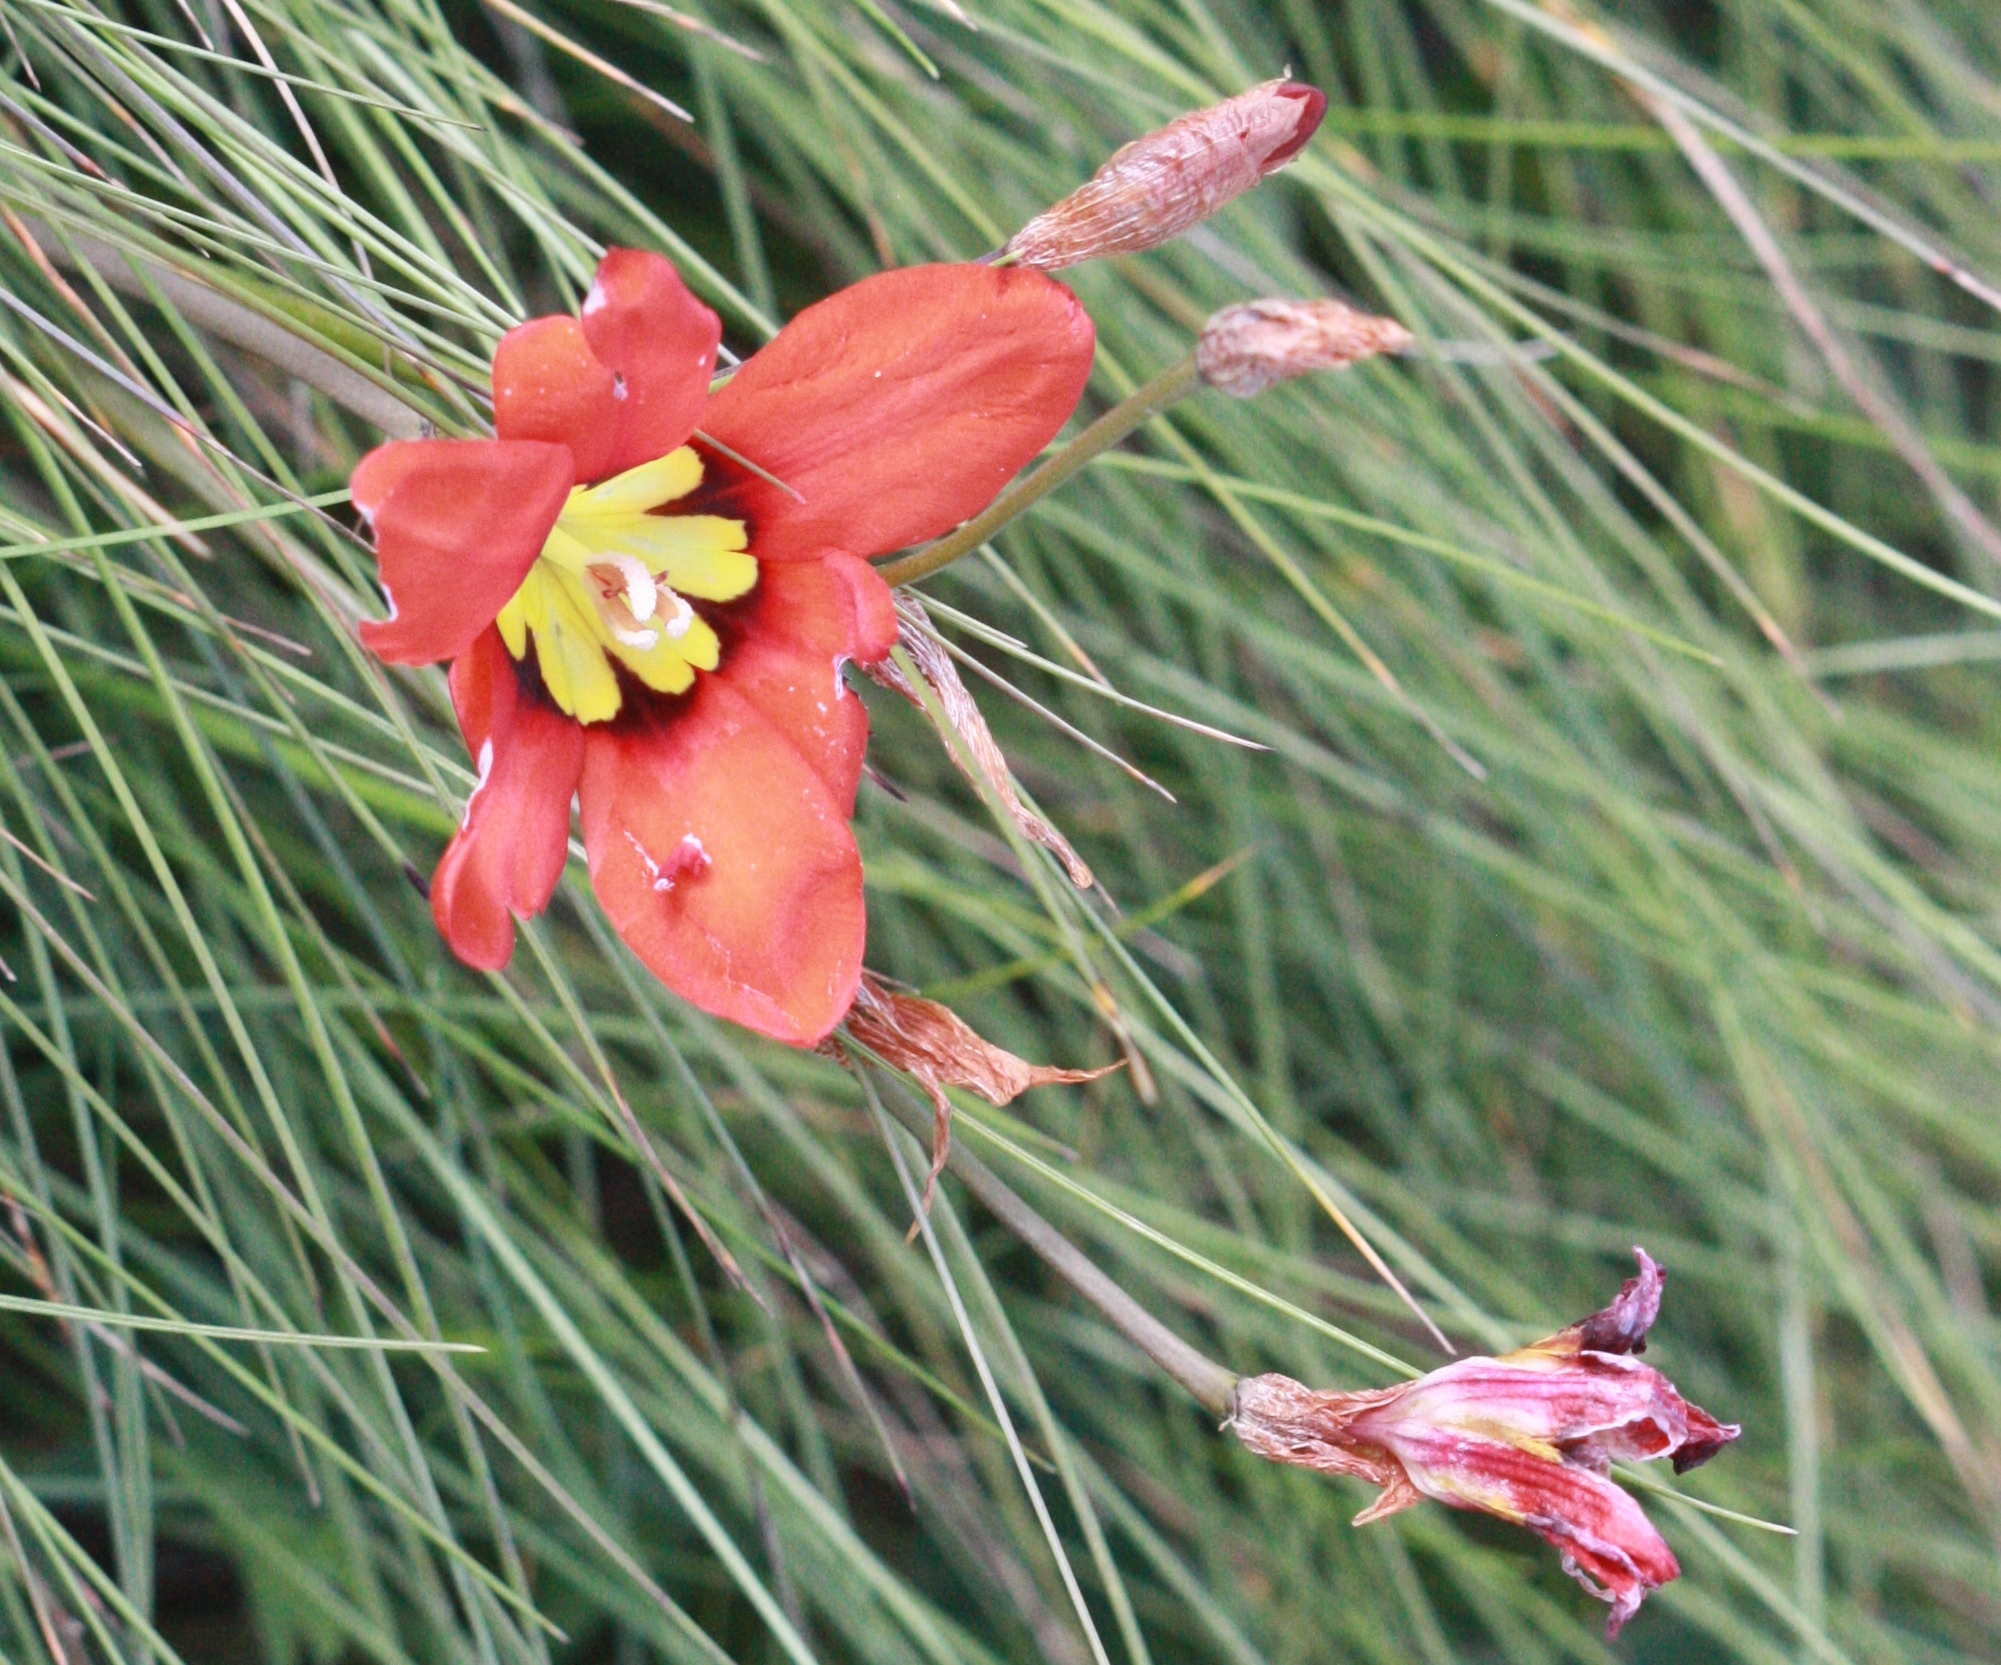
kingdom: Plantae
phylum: Tracheophyta
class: Liliopsida
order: Asparagales
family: Iridaceae
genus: Sparaxis
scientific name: Sparaxis tricolor
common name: Wandflower
